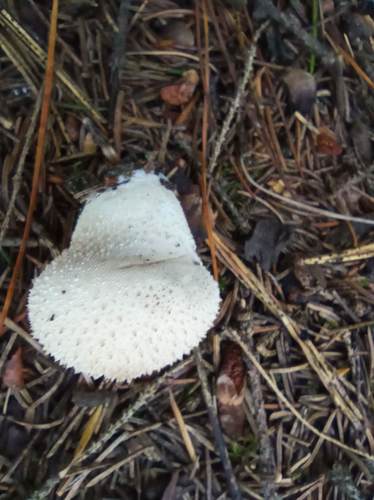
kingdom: Fungi
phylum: Basidiomycota
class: Agaricomycetes
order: Agaricales
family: Lycoperdaceae
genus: Lycoperdon
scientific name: Lycoperdon perlatum
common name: Common puffball
